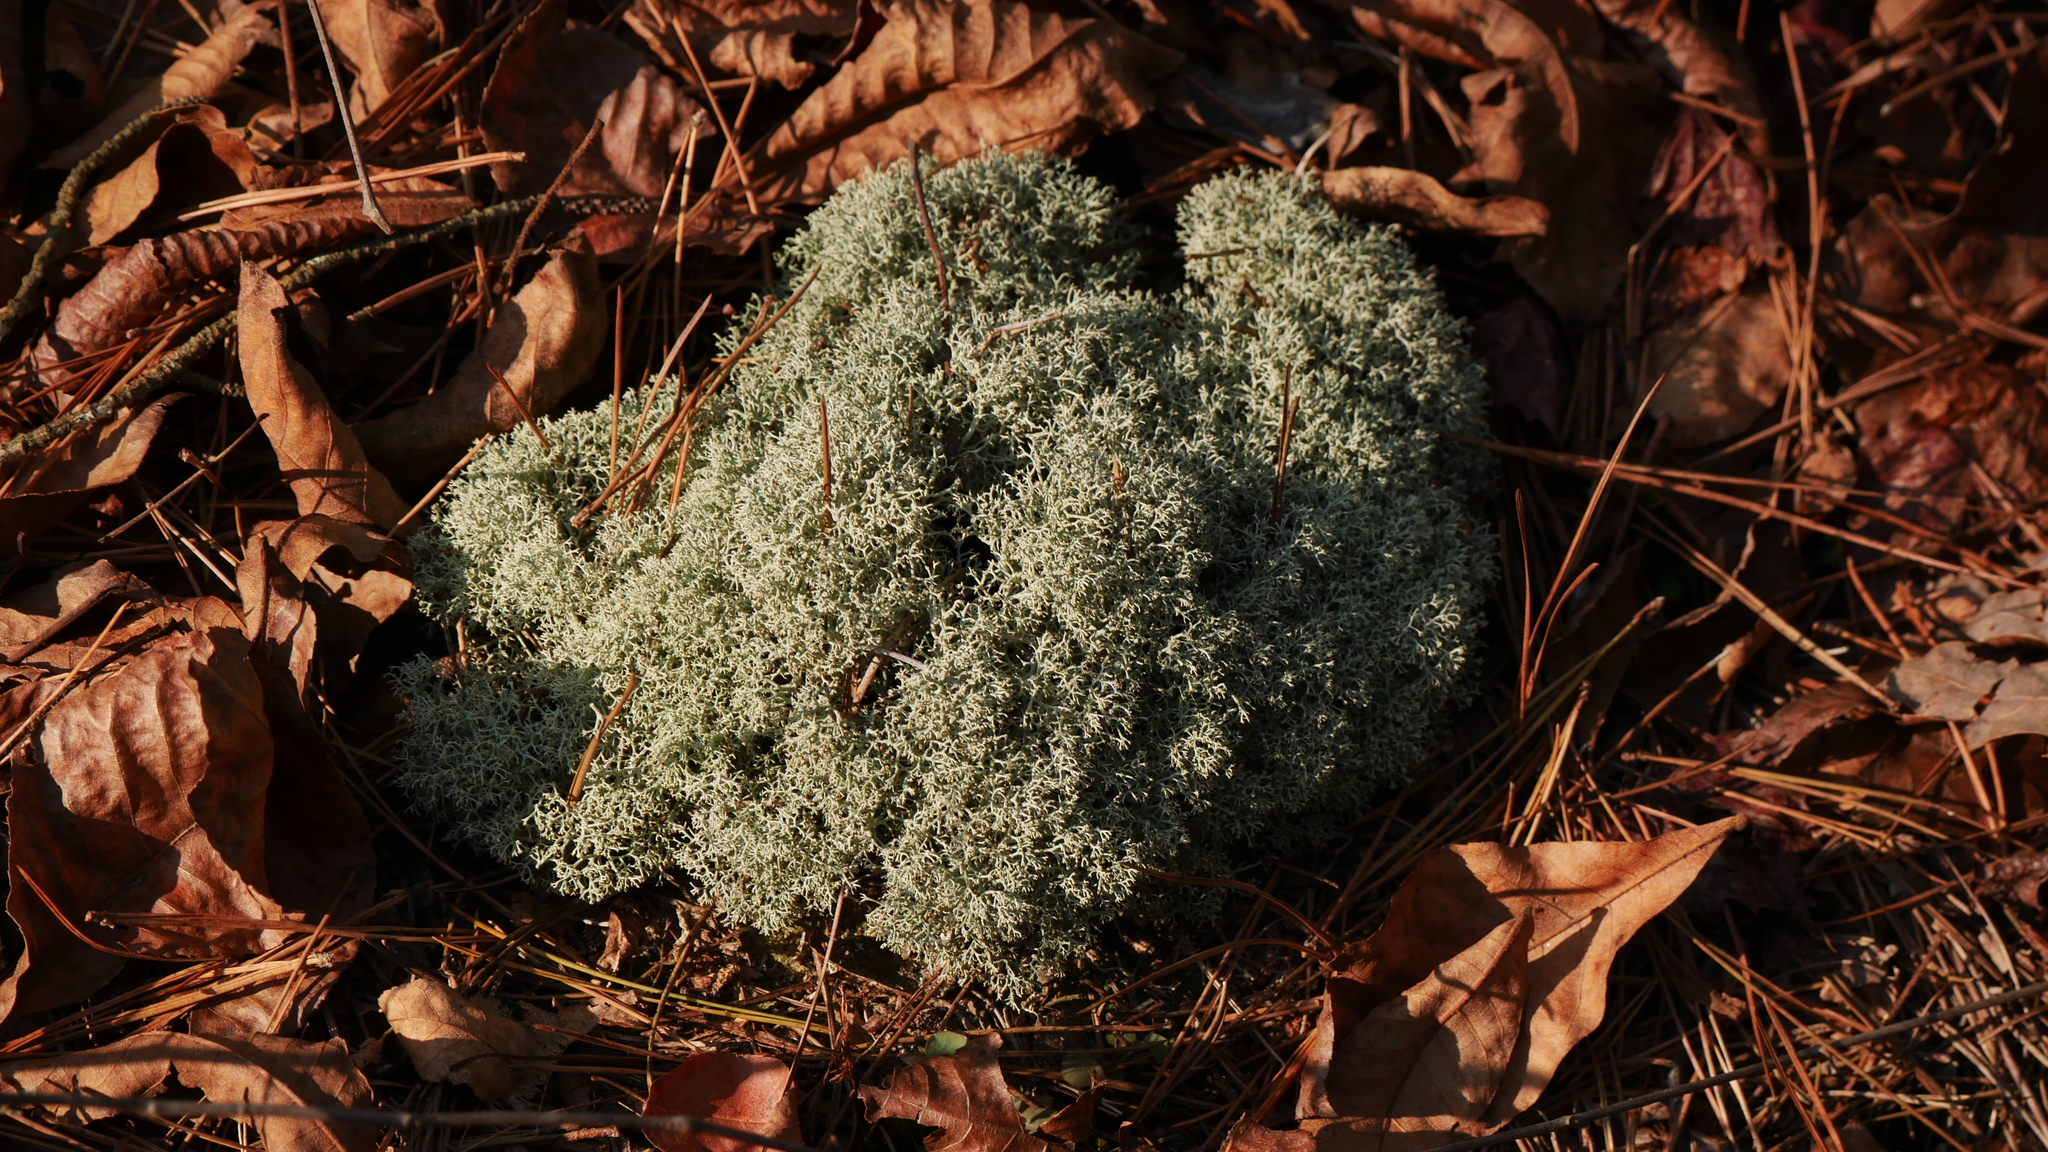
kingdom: Fungi
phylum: Ascomycota
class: Lecanoromycetes
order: Lecanorales
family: Cladoniaceae
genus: Cladonia
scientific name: Cladonia subtenuis
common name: Dixie reindeer lichen
